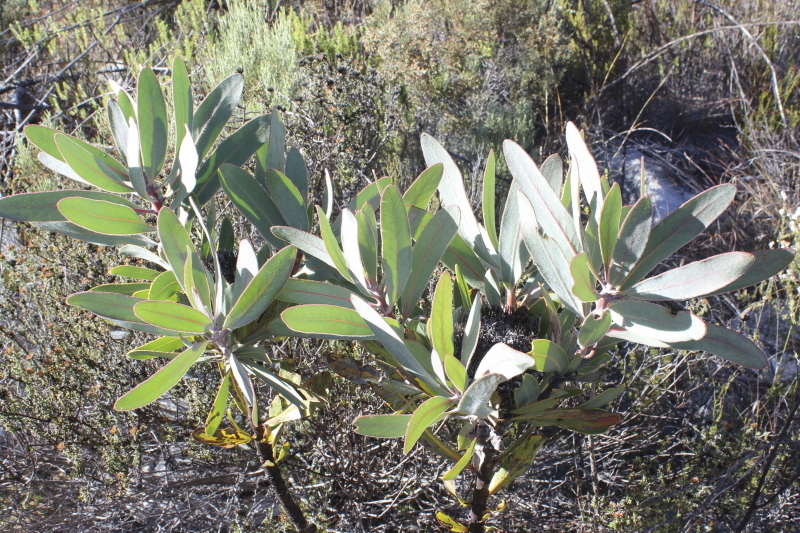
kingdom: Plantae
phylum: Tracheophyta
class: Magnoliopsida
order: Proteales
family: Proteaceae
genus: Protea
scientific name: Protea lorifolia
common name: Strap-leaved protea
